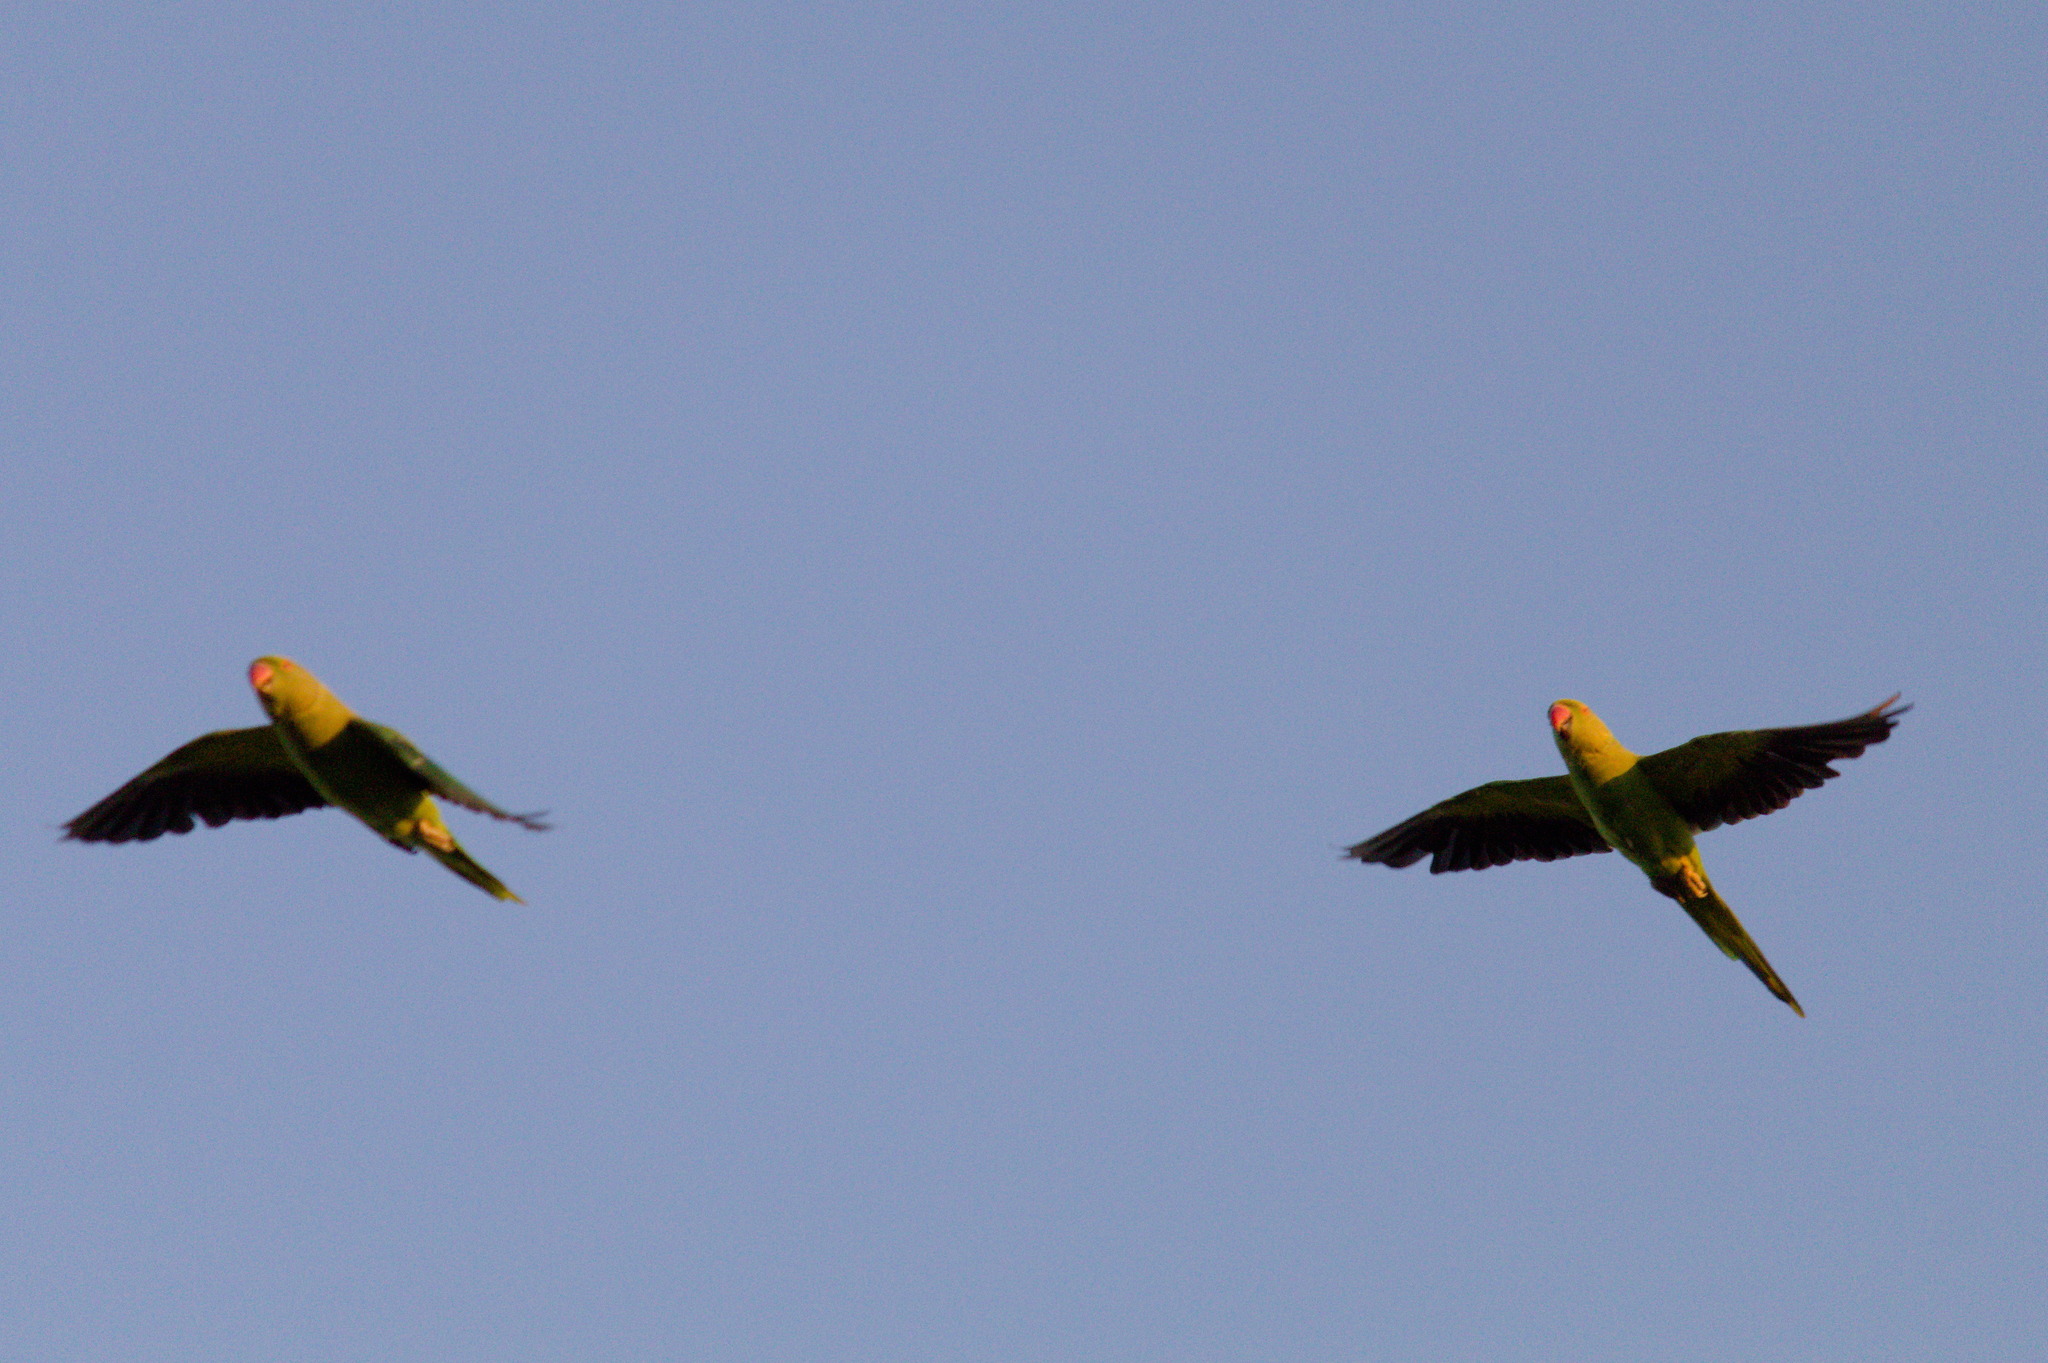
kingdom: Animalia
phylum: Chordata
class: Aves
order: Psittaciformes
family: Psittacidae
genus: Psittacula
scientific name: Psittacula krameri
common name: Rose-ringed parakeet
